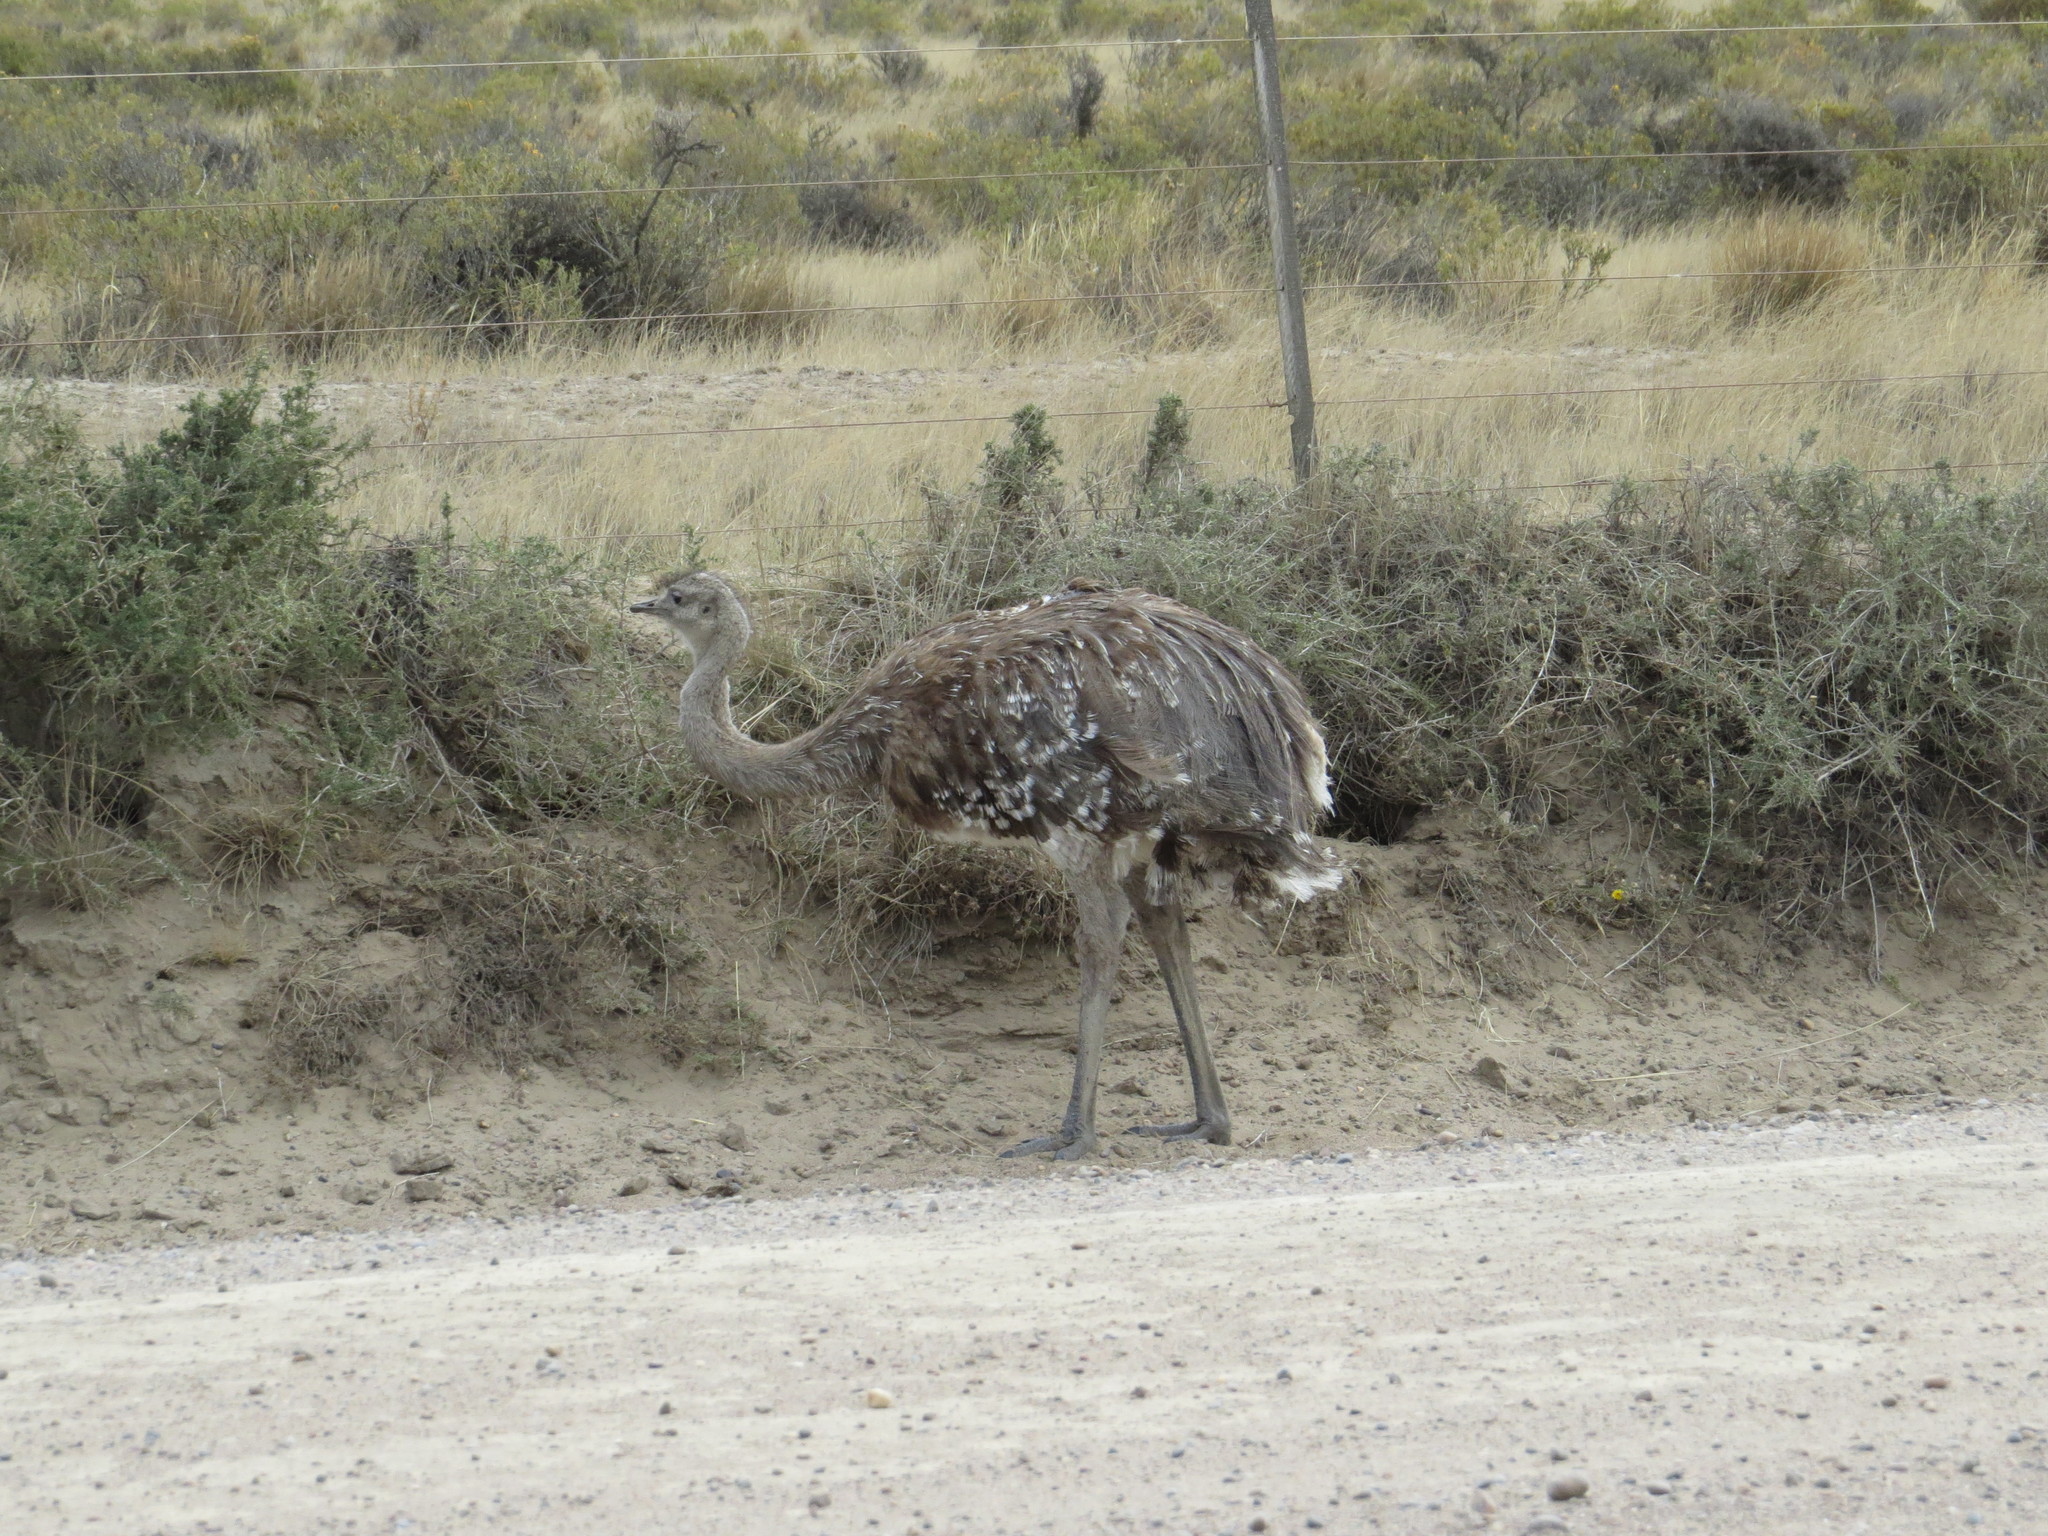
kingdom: Animalia
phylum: Chordata
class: Aves
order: Rheiformes
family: Rheidae
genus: Rhea
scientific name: Rhea pennata
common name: Lesser rhea
